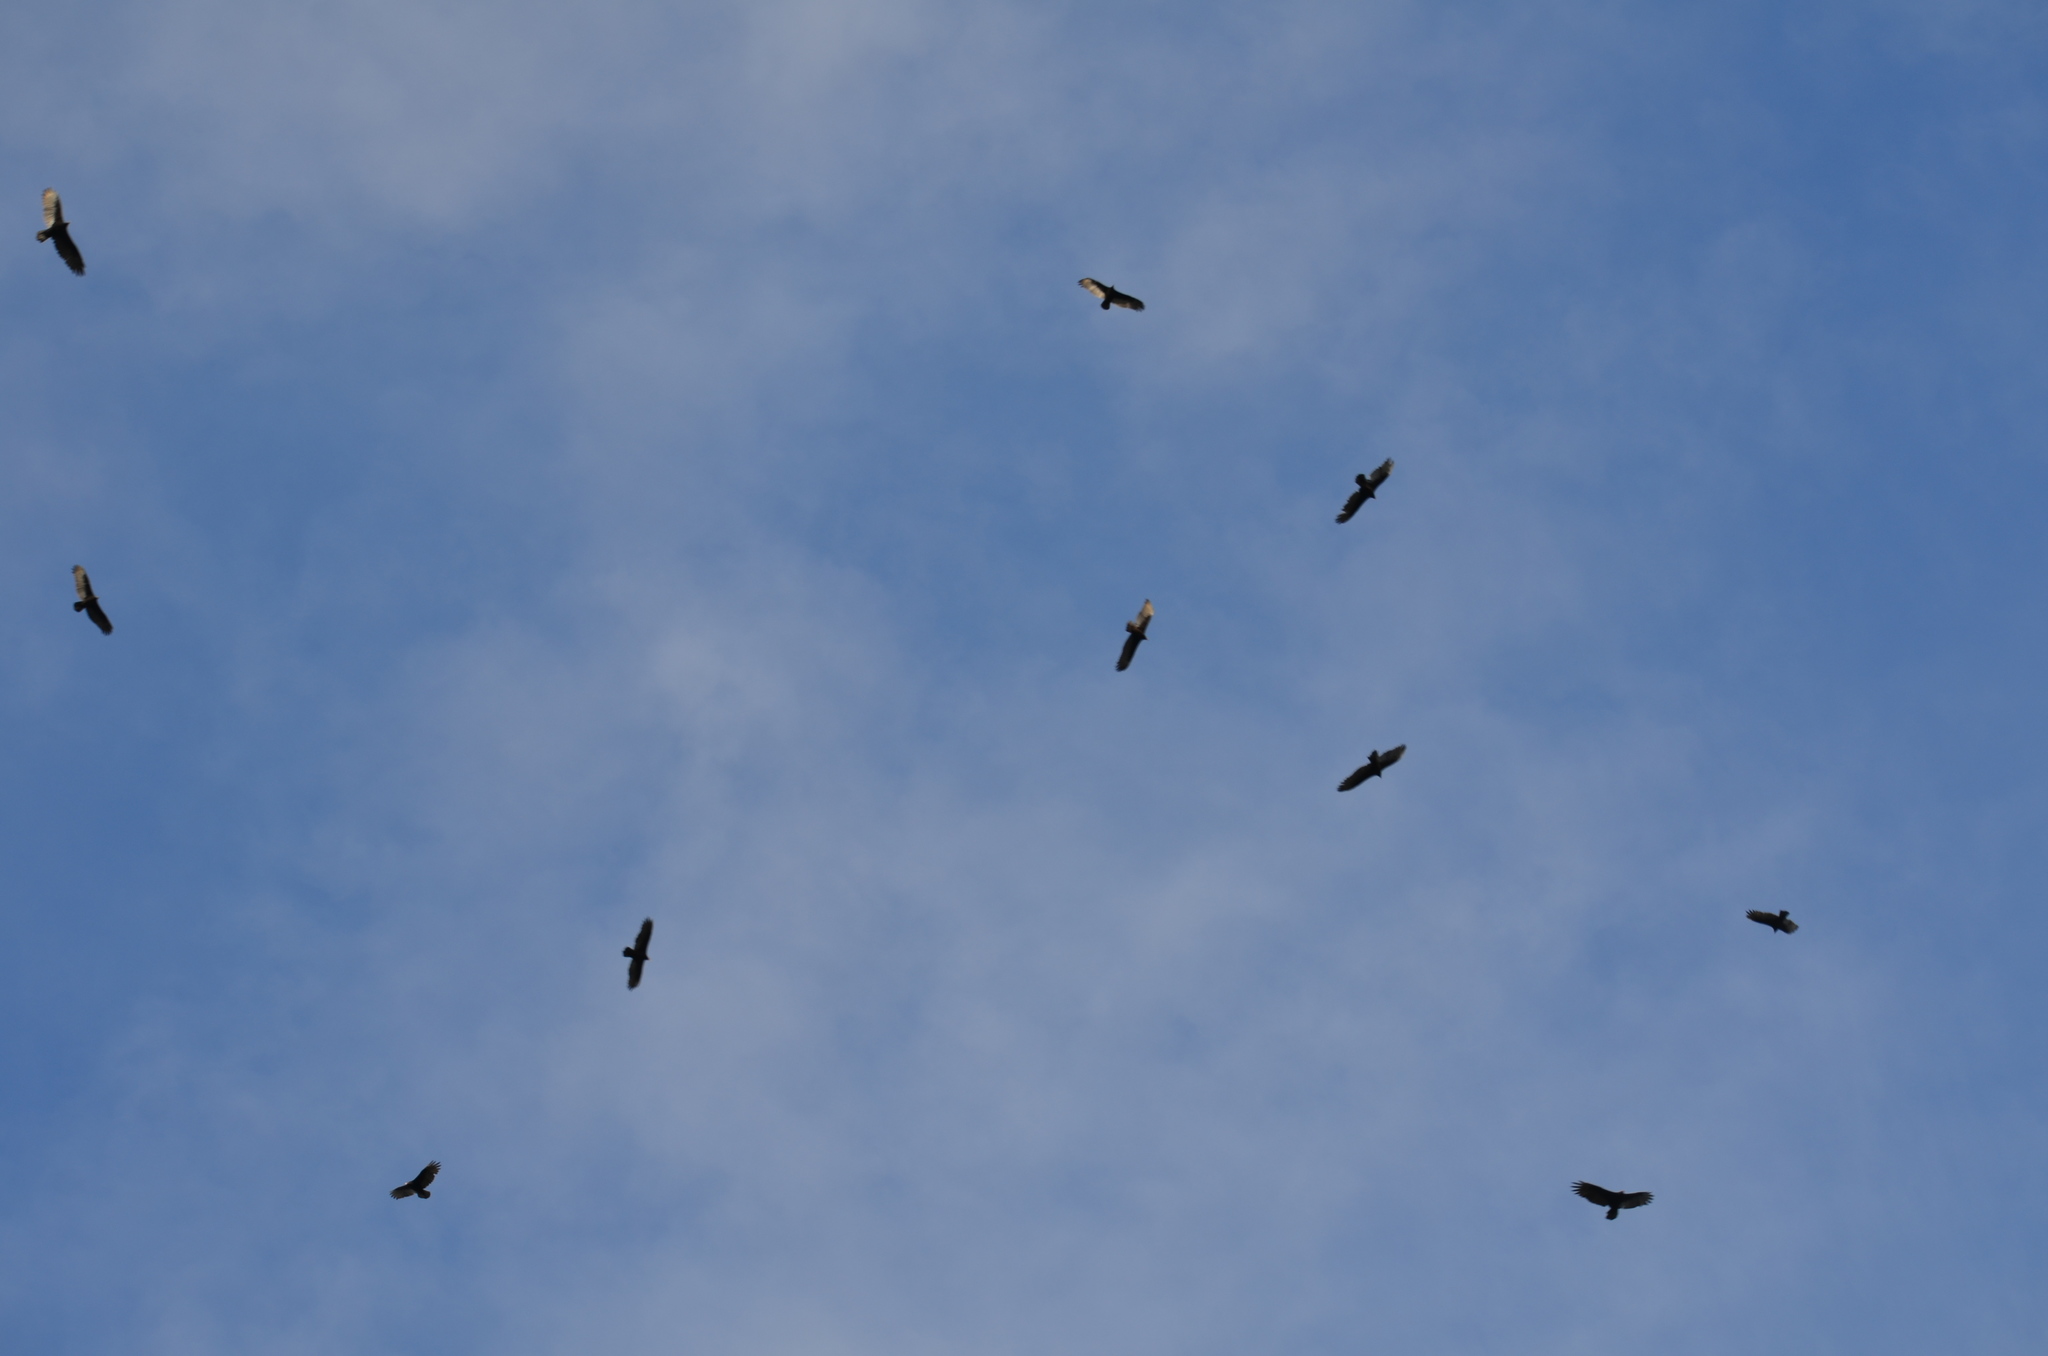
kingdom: Animalia
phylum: Chordata
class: Aves
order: Accipitriformes
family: Cathartidae
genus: Cathartes
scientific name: Cathartes aura
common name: Turkey vulture
